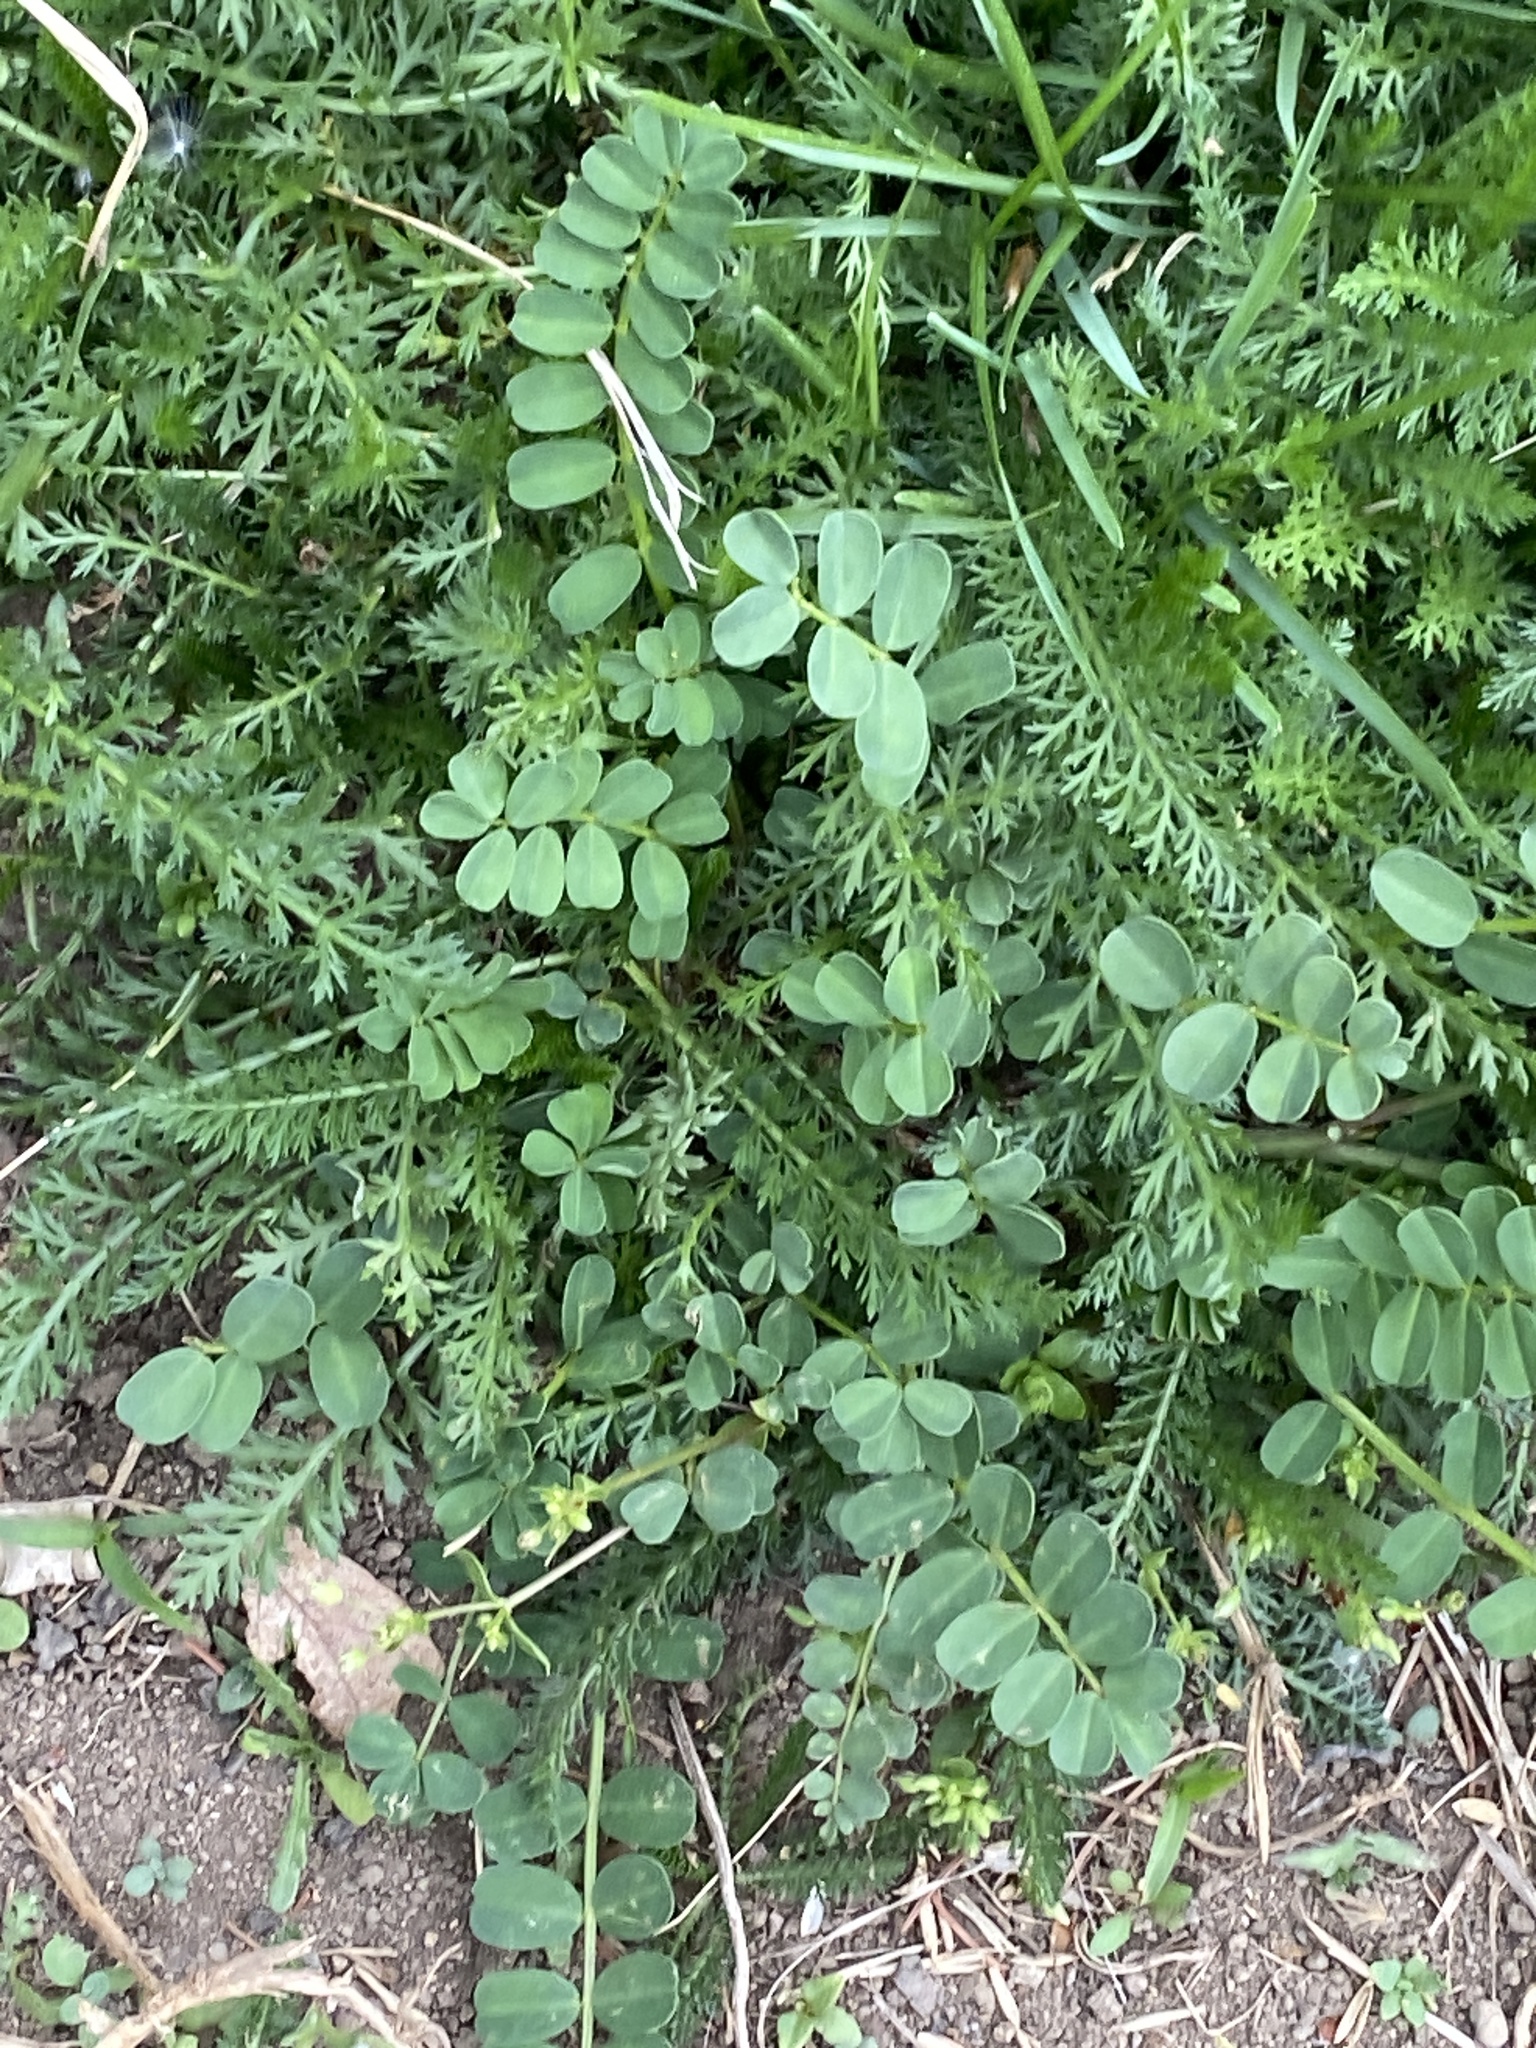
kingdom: Plantae
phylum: Tracheophyta
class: Magnoliopsida
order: Fabales
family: Fabaceae
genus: Coronilla
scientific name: Coronilla varia
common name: Crownvetch
